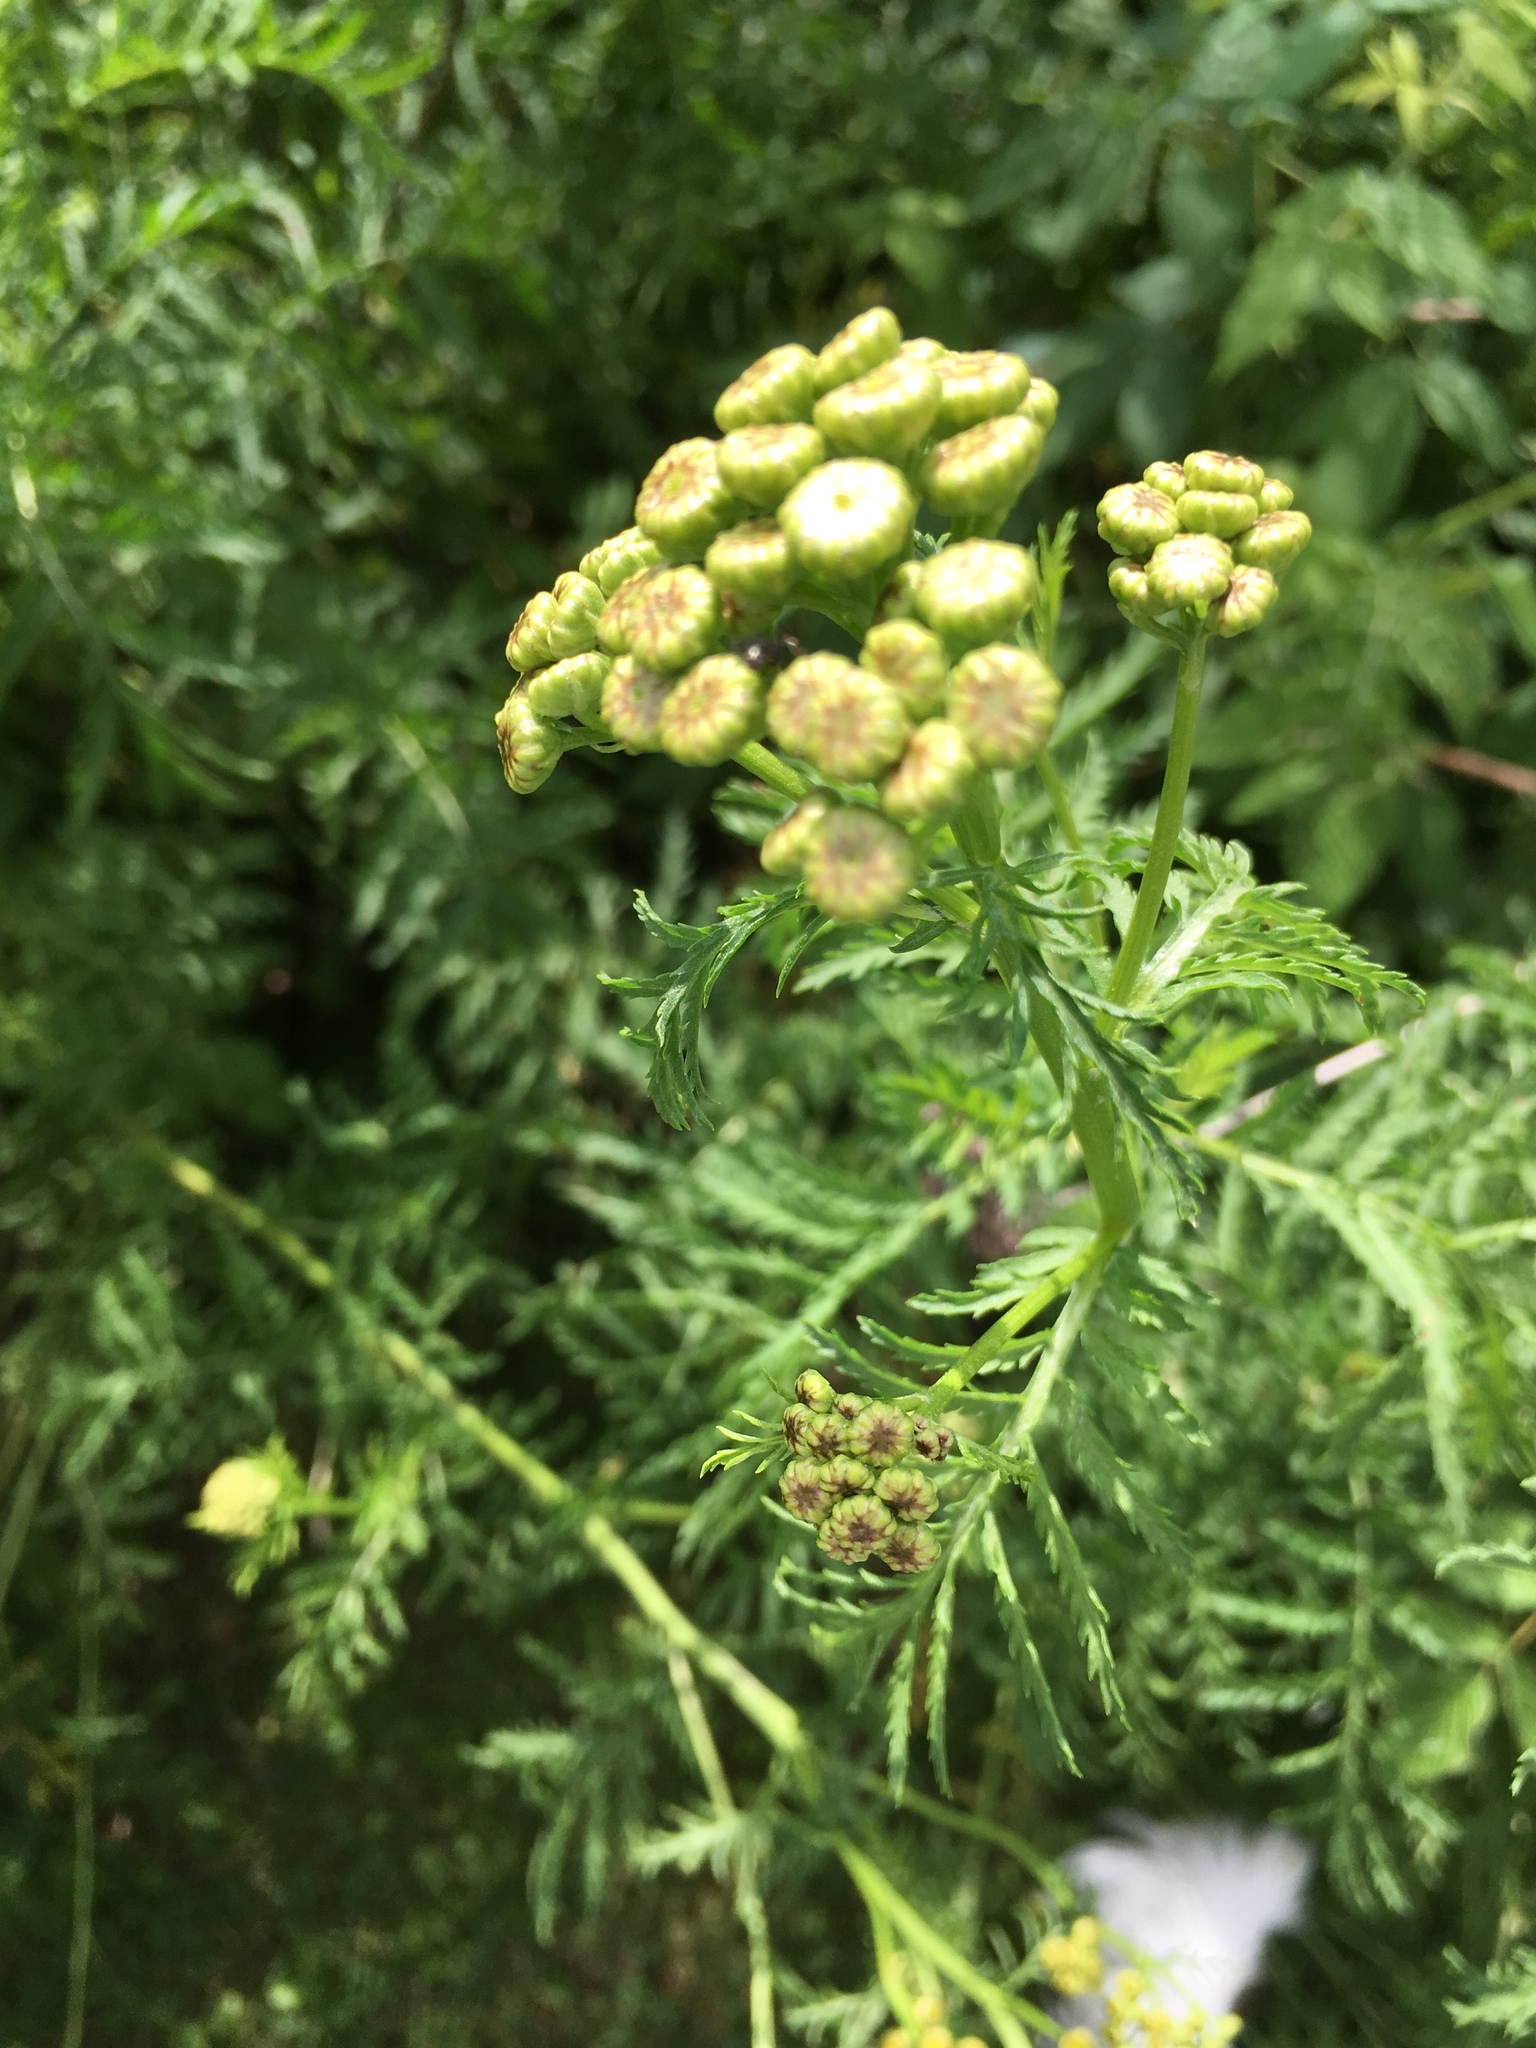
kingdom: Plantae
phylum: Tracheophyta
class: Magnoliopsida
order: Asterales
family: Asteraceae
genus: Tanacetum
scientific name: Tanacetum vulgare
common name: Common tansy
